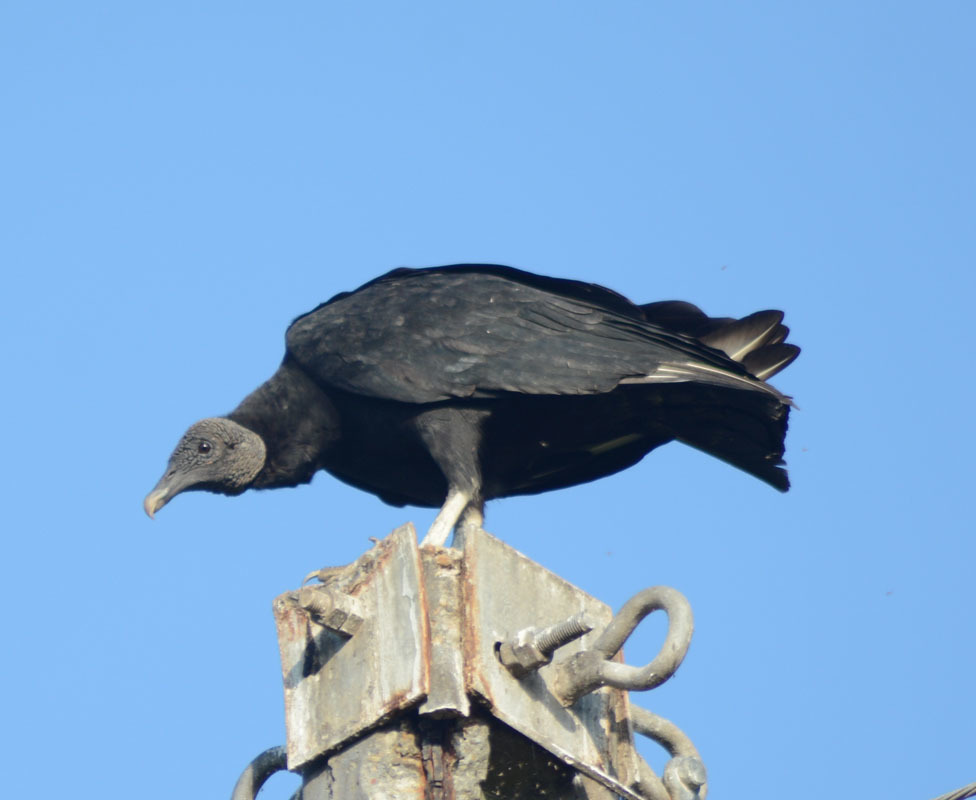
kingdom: Animalia
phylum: Chordata
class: Aves
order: Accipitriformes
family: Cathartidae
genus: Coragyps
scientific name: Coragyps atratus
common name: Black vulture
